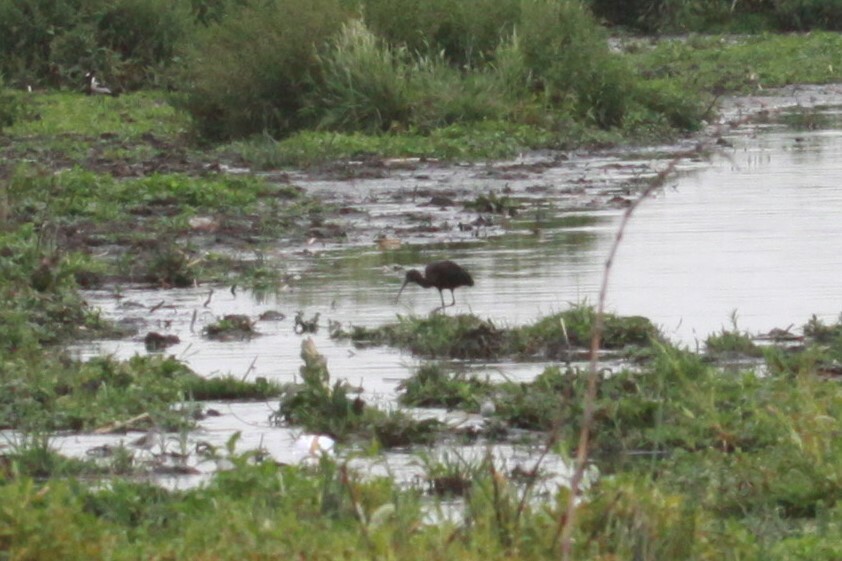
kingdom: Animalia
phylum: Chordata
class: Aves
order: Pelecaniformes
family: Threskiornithidae
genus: Plegadis
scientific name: Plegadis falcinellus
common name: Glossy ibis
